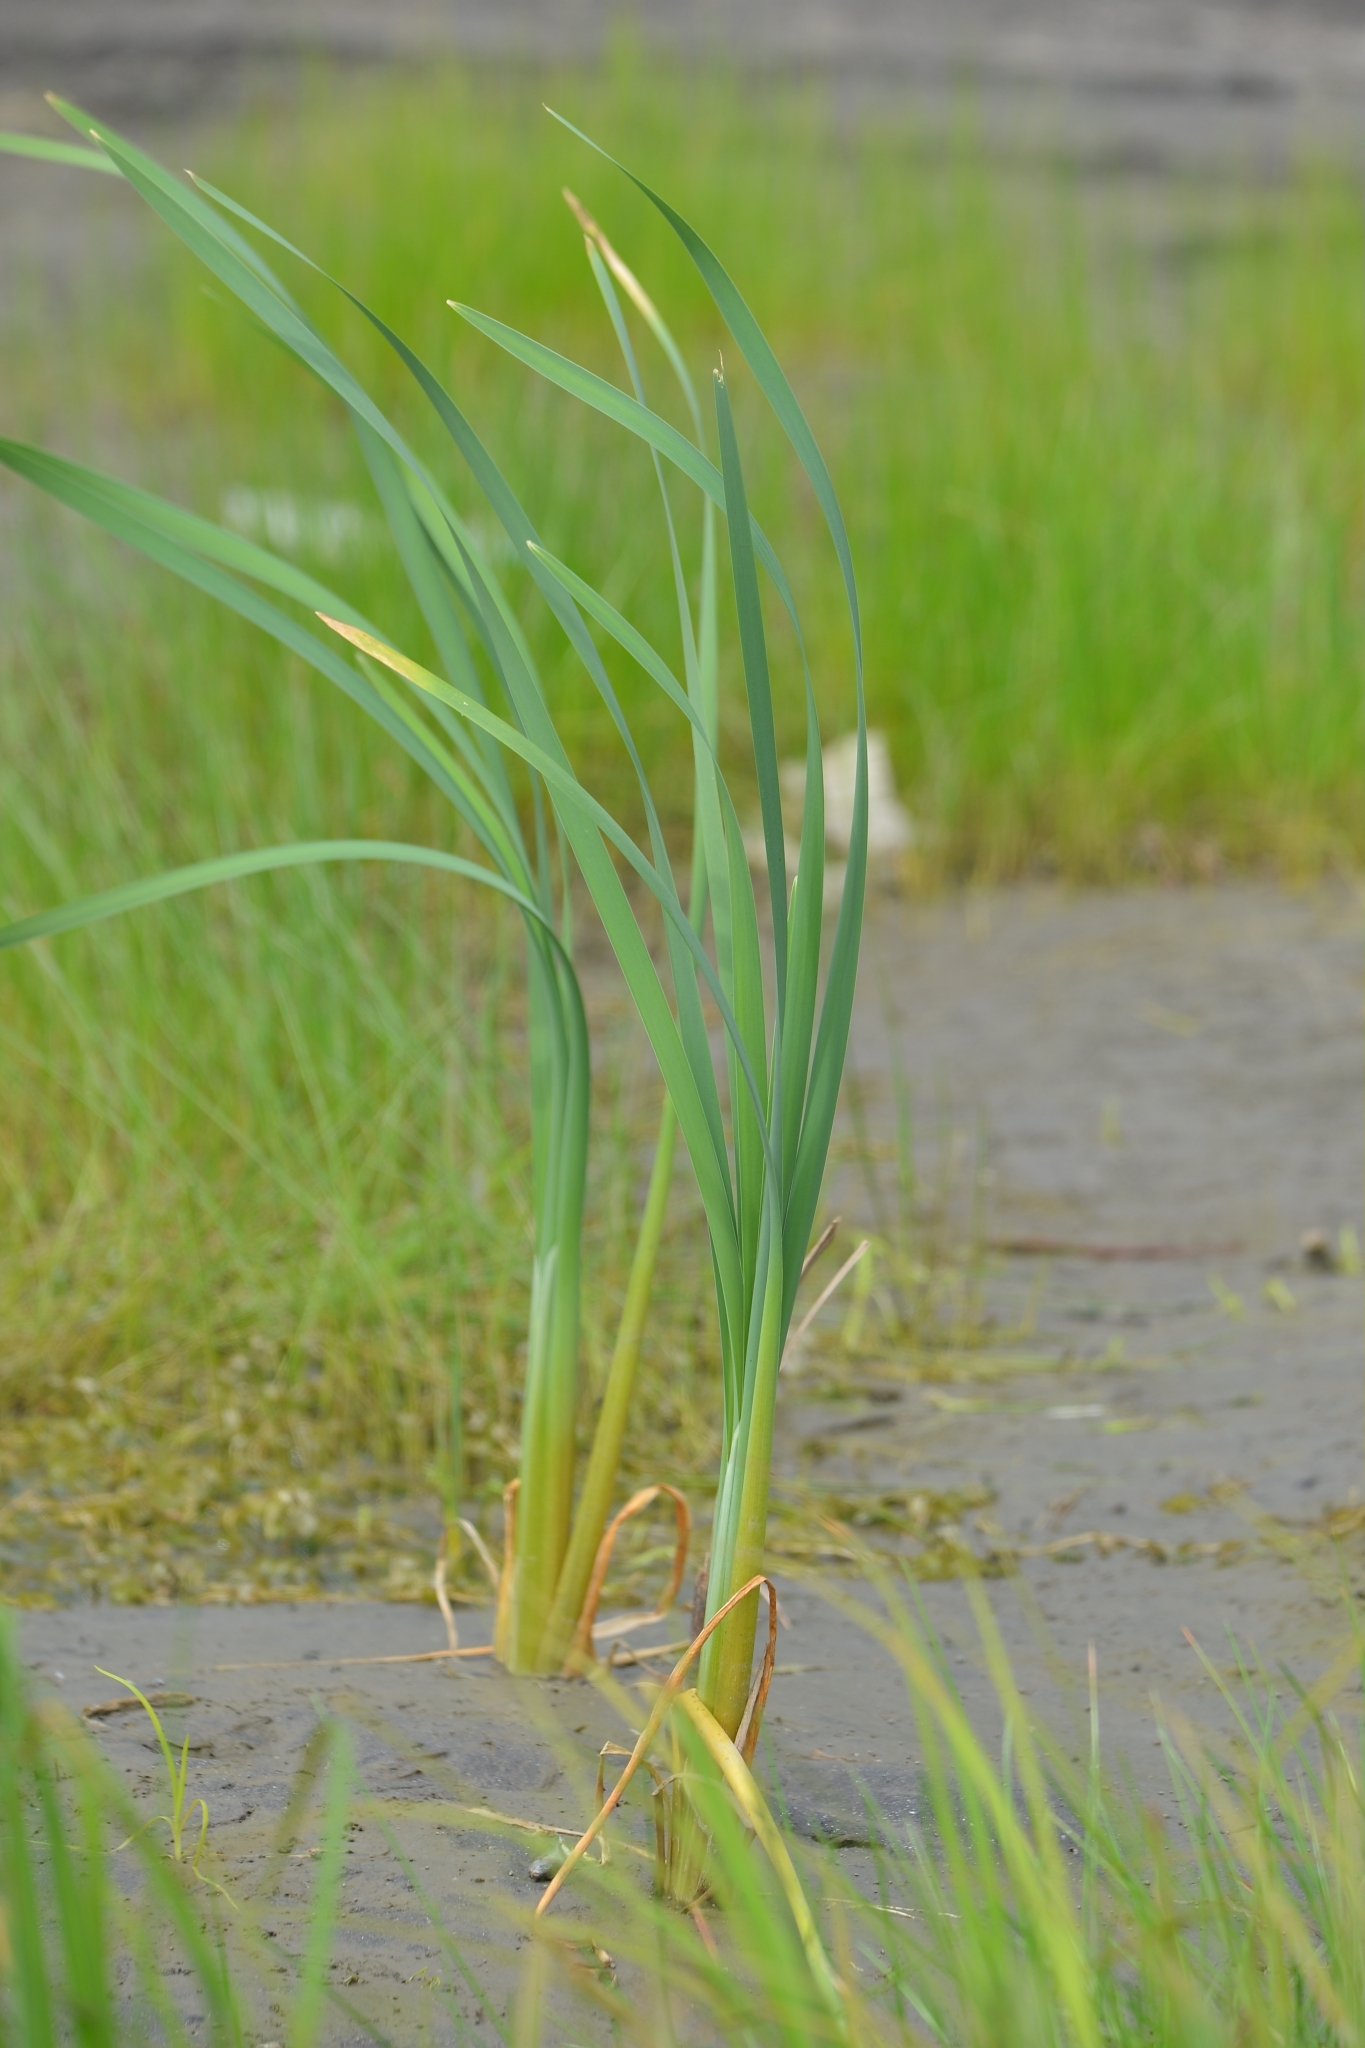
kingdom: Plantae
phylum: Tracheophyta
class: Liliopsida
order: Poales
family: Typhaceae
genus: Typha
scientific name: Typha latifolia
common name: Broadleaf cattail
